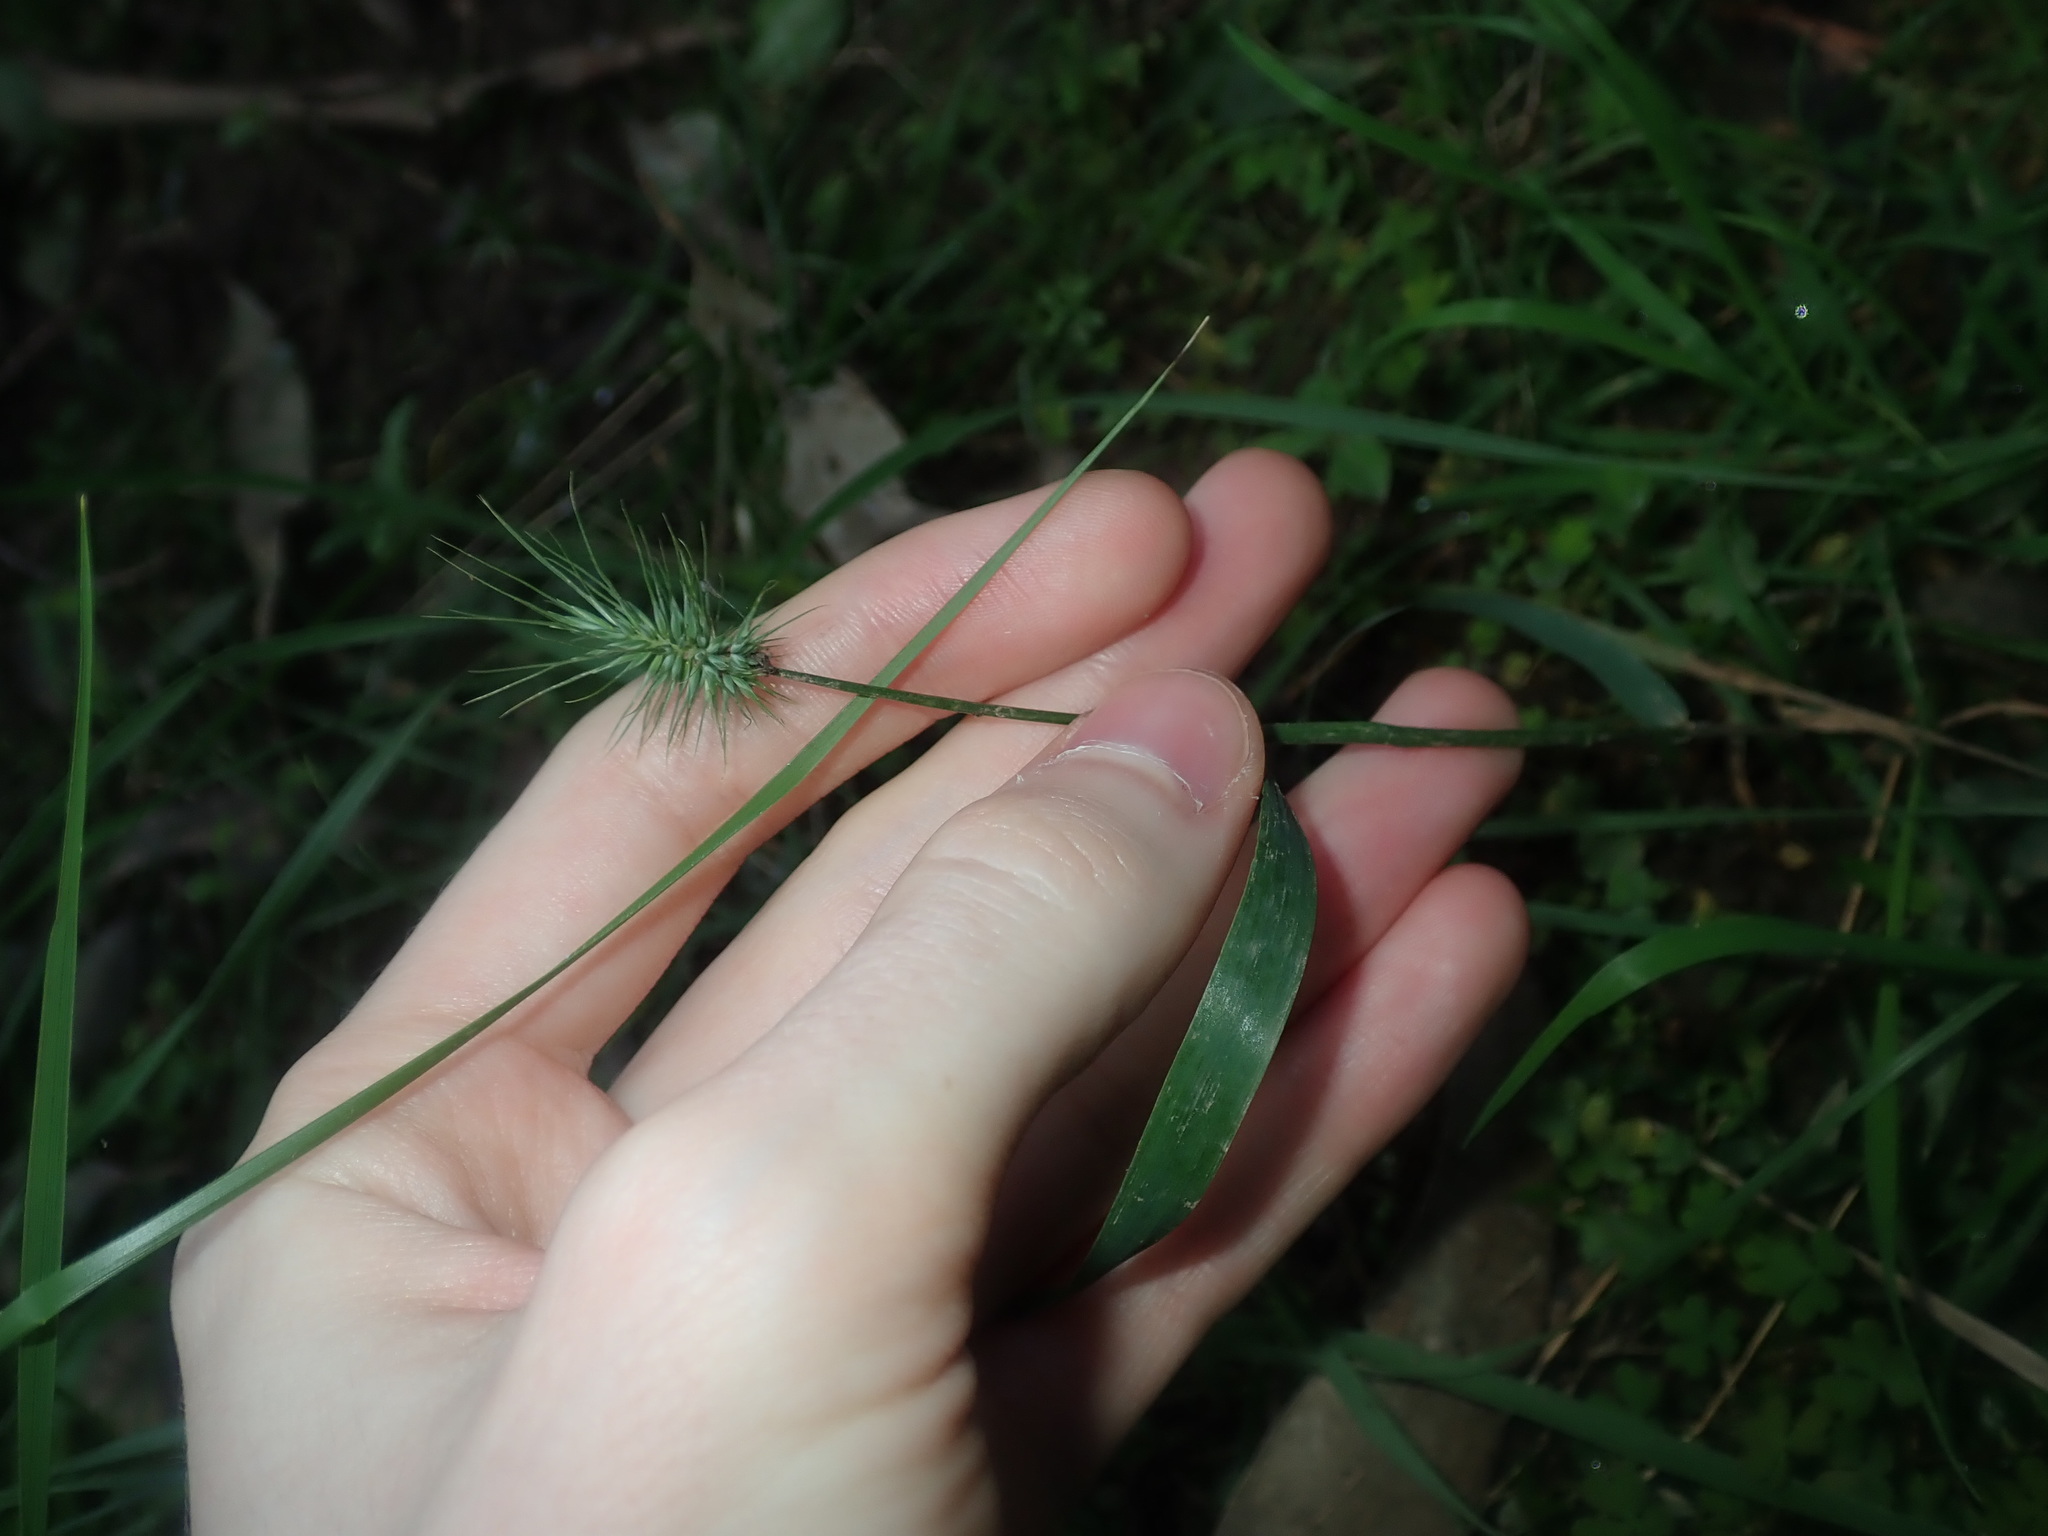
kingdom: Plantae
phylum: Tracheophyta
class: Liliopsida
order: Poales
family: Poaceae
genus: Echinopogon
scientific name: Echinopogon ovatus
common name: Hedgehog-grass
